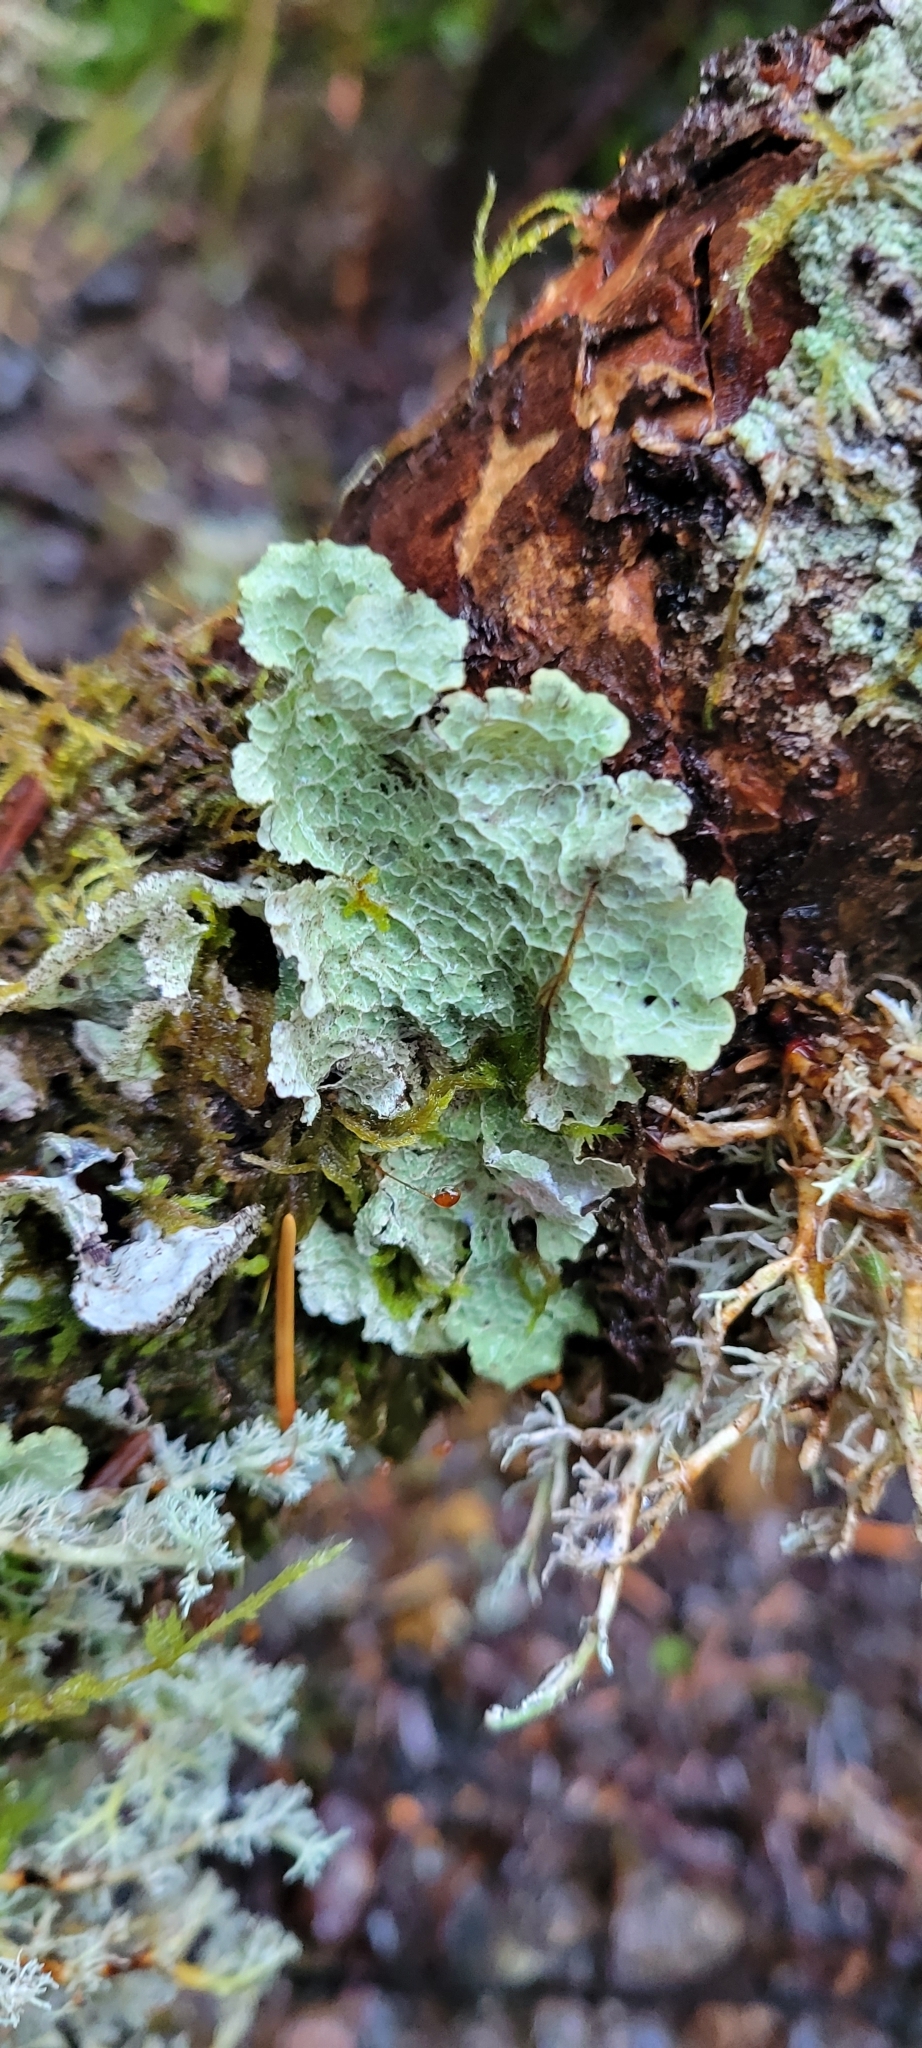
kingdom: Fungi
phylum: Ascomycota
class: Lecanoromycetes
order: Lecanorales
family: Parmeliaceae
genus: Platismatia
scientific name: Platismatia norvegica
